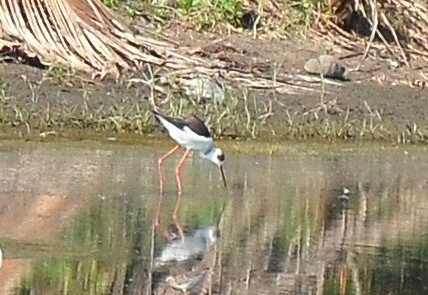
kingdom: Animalia
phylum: Chordata
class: Aves
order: Charadriiformes
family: Recurvirostridae
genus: Himantopus
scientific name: Himantopus himantopus
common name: Black-winged stilt
